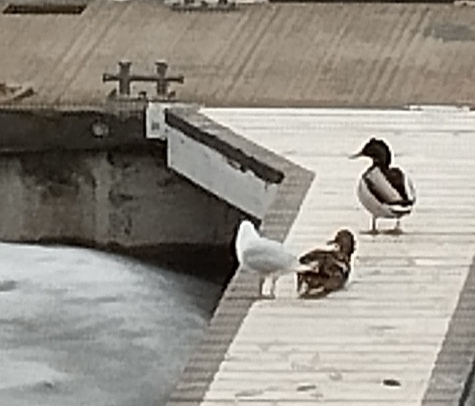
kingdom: Animalia
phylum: Chordata
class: Aves
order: Charadriiformes
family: Laridae
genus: Chroicocephalus
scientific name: Chroicocephalus ridibundus
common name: Black-headed gull
